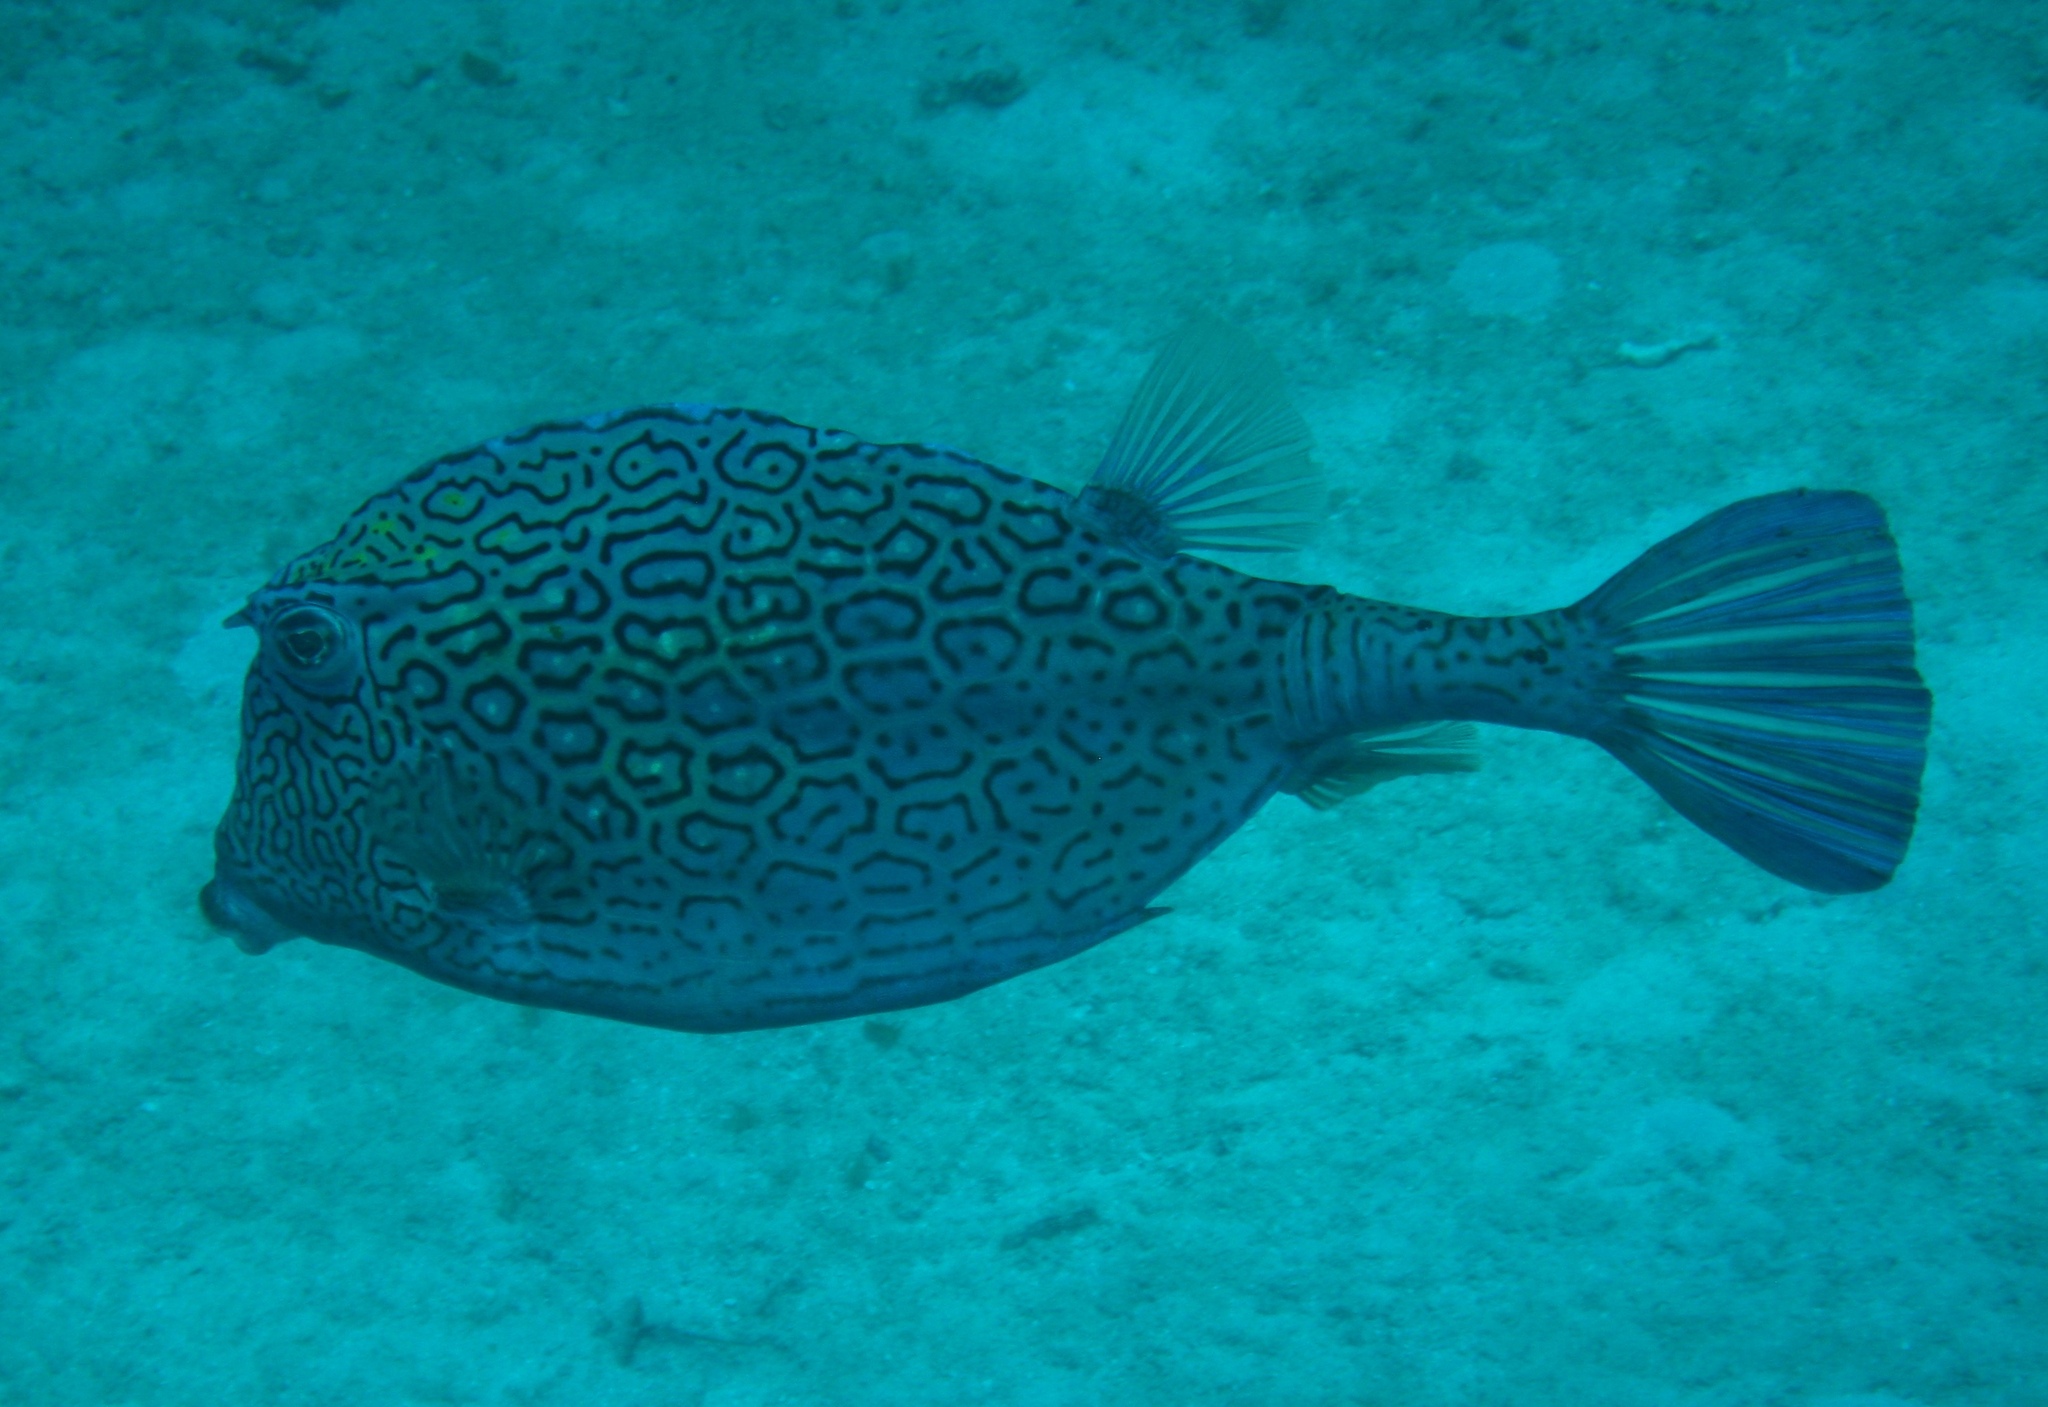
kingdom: Animalia
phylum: Chordata
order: Tetraodontiformes
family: Ostraciidae
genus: Acanthostracion
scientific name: Acanthostracion polygonius
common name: Honeycomb cowfish
